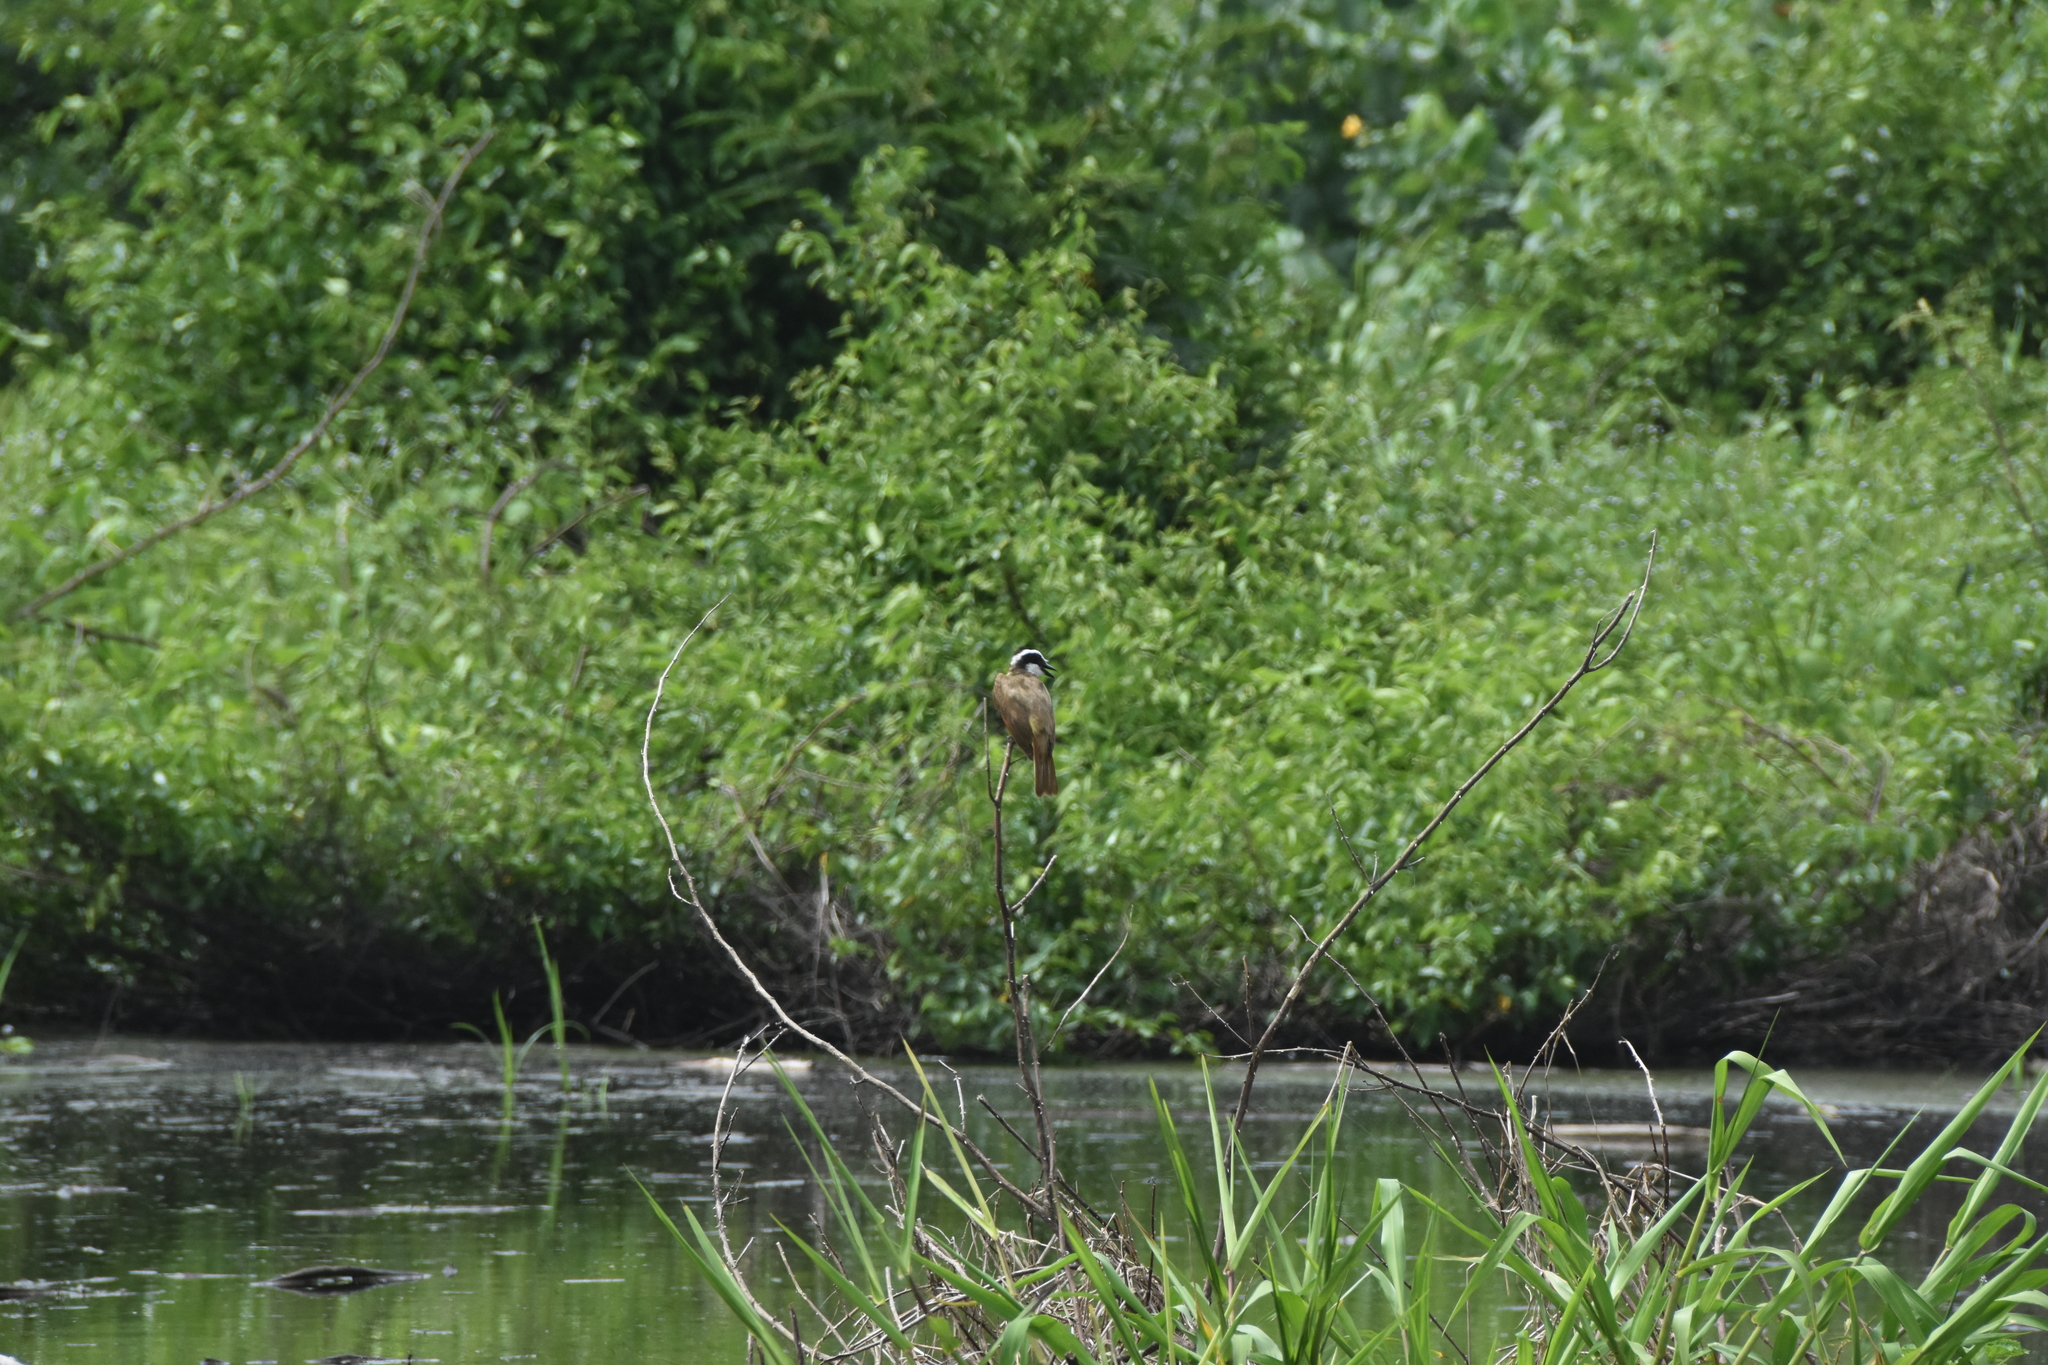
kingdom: Animalia
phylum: Chordata
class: Aves
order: Passeriformes
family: Tyrannidae
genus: Pitangus
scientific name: Pitangus sulphuratus
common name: Great kiskadee
